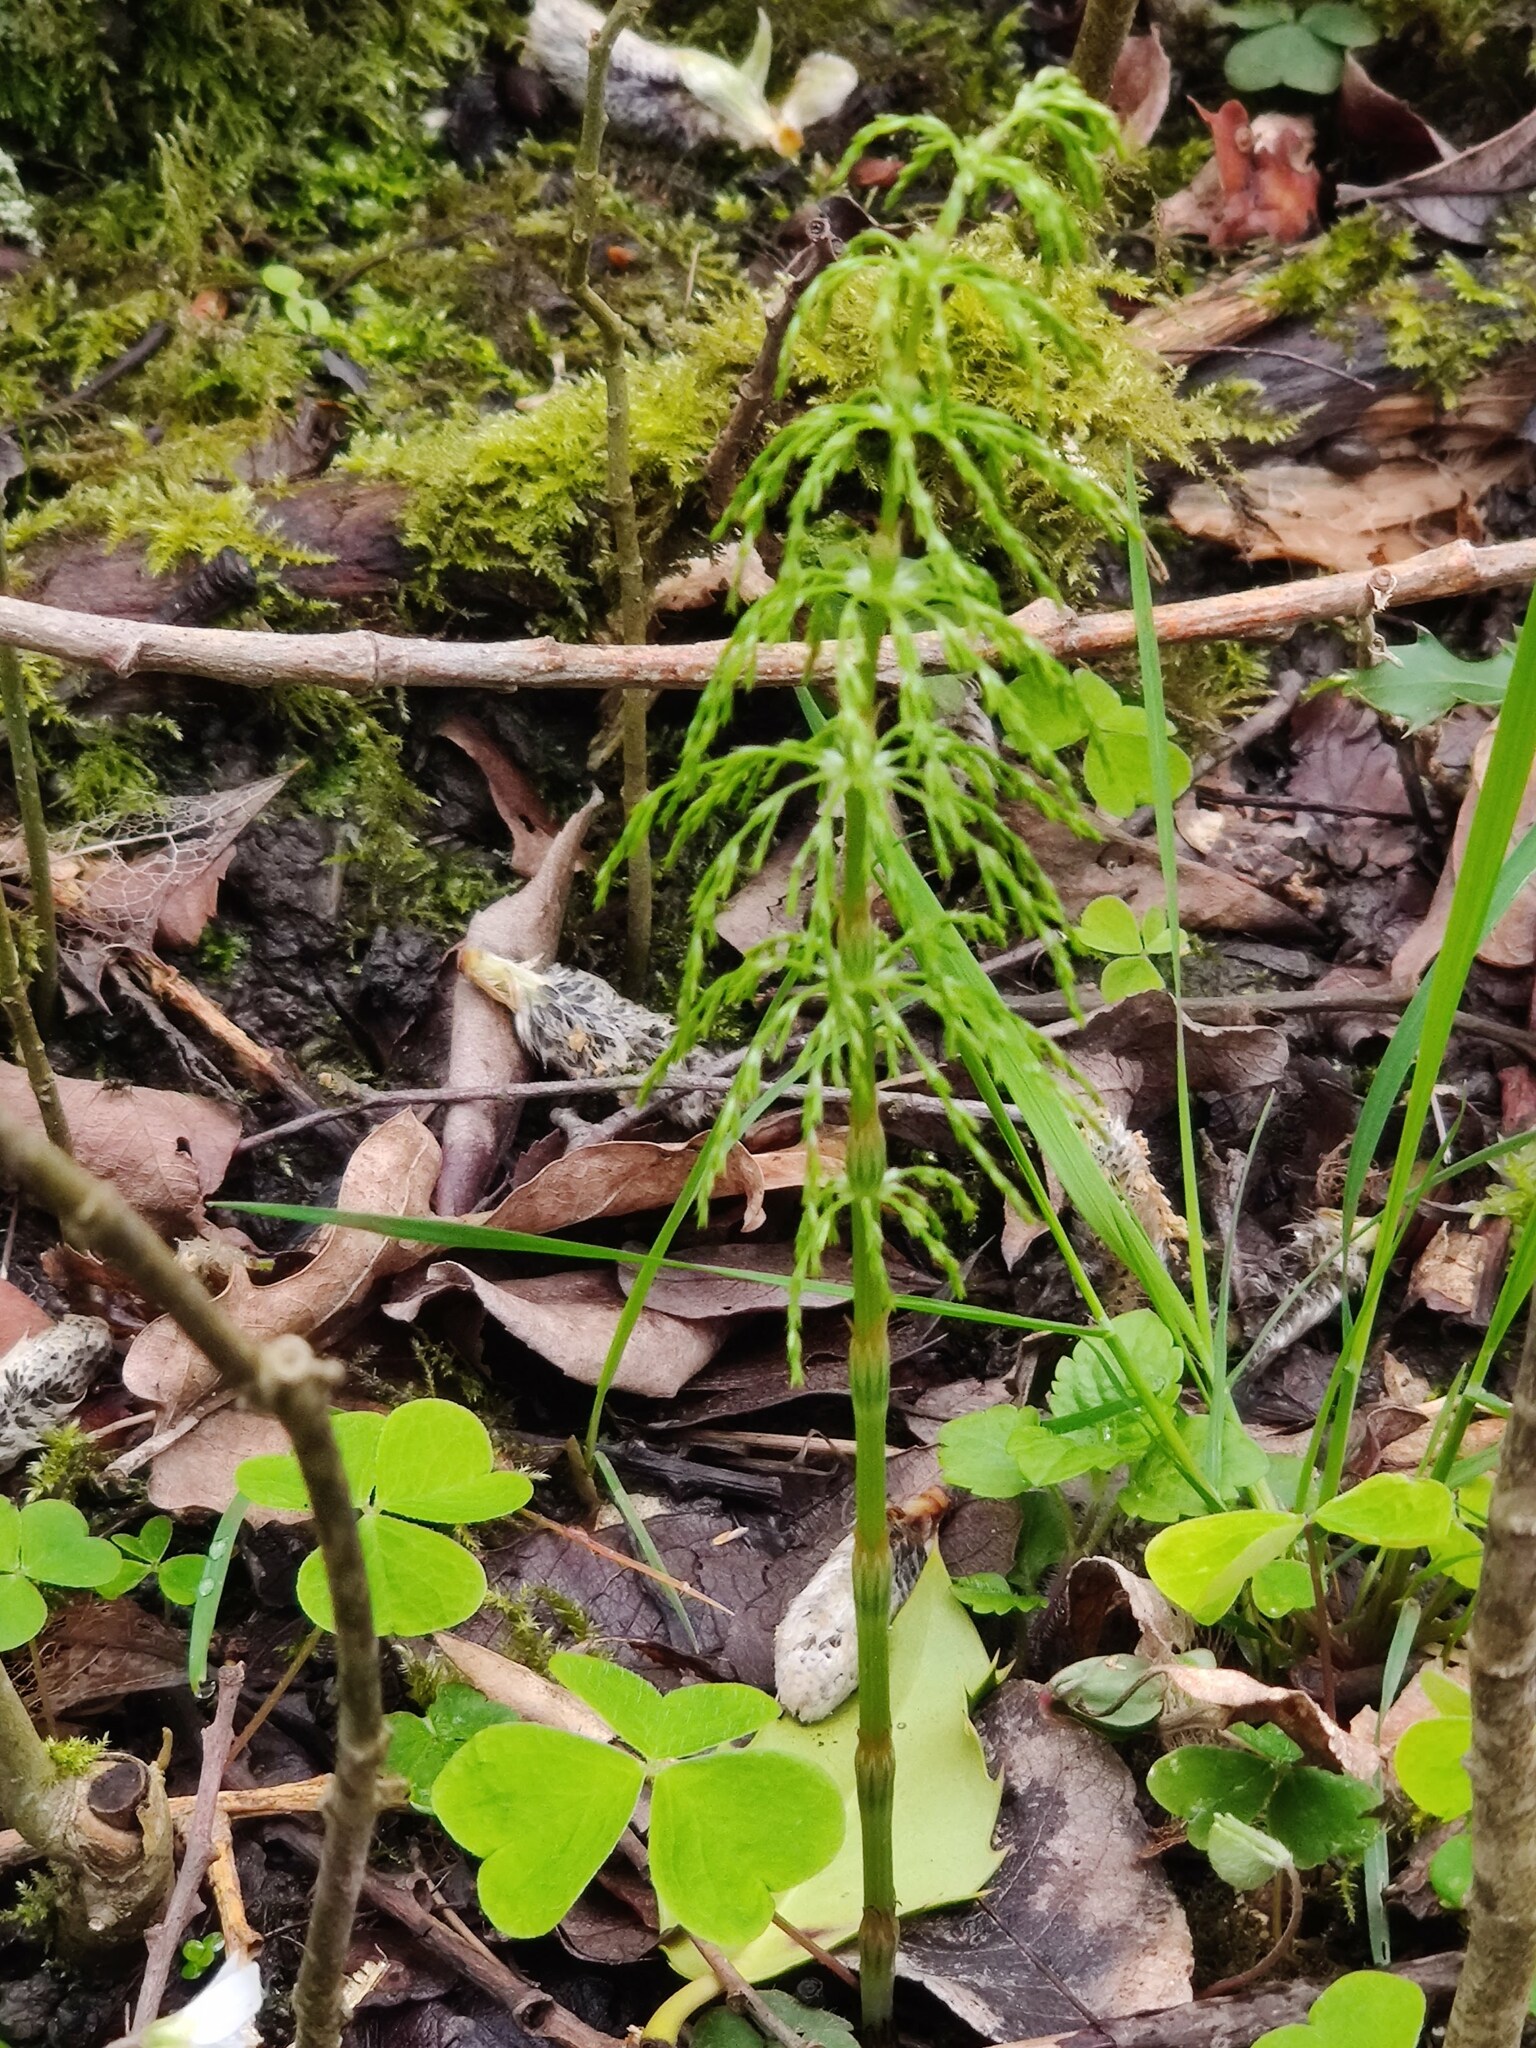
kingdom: Plantae
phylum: Tracheophyta
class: Polypodiopsida
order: Equisetales
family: Equisetaceae
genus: Equisetum
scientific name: Equisetum sylvaticum
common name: Wood horsetail
